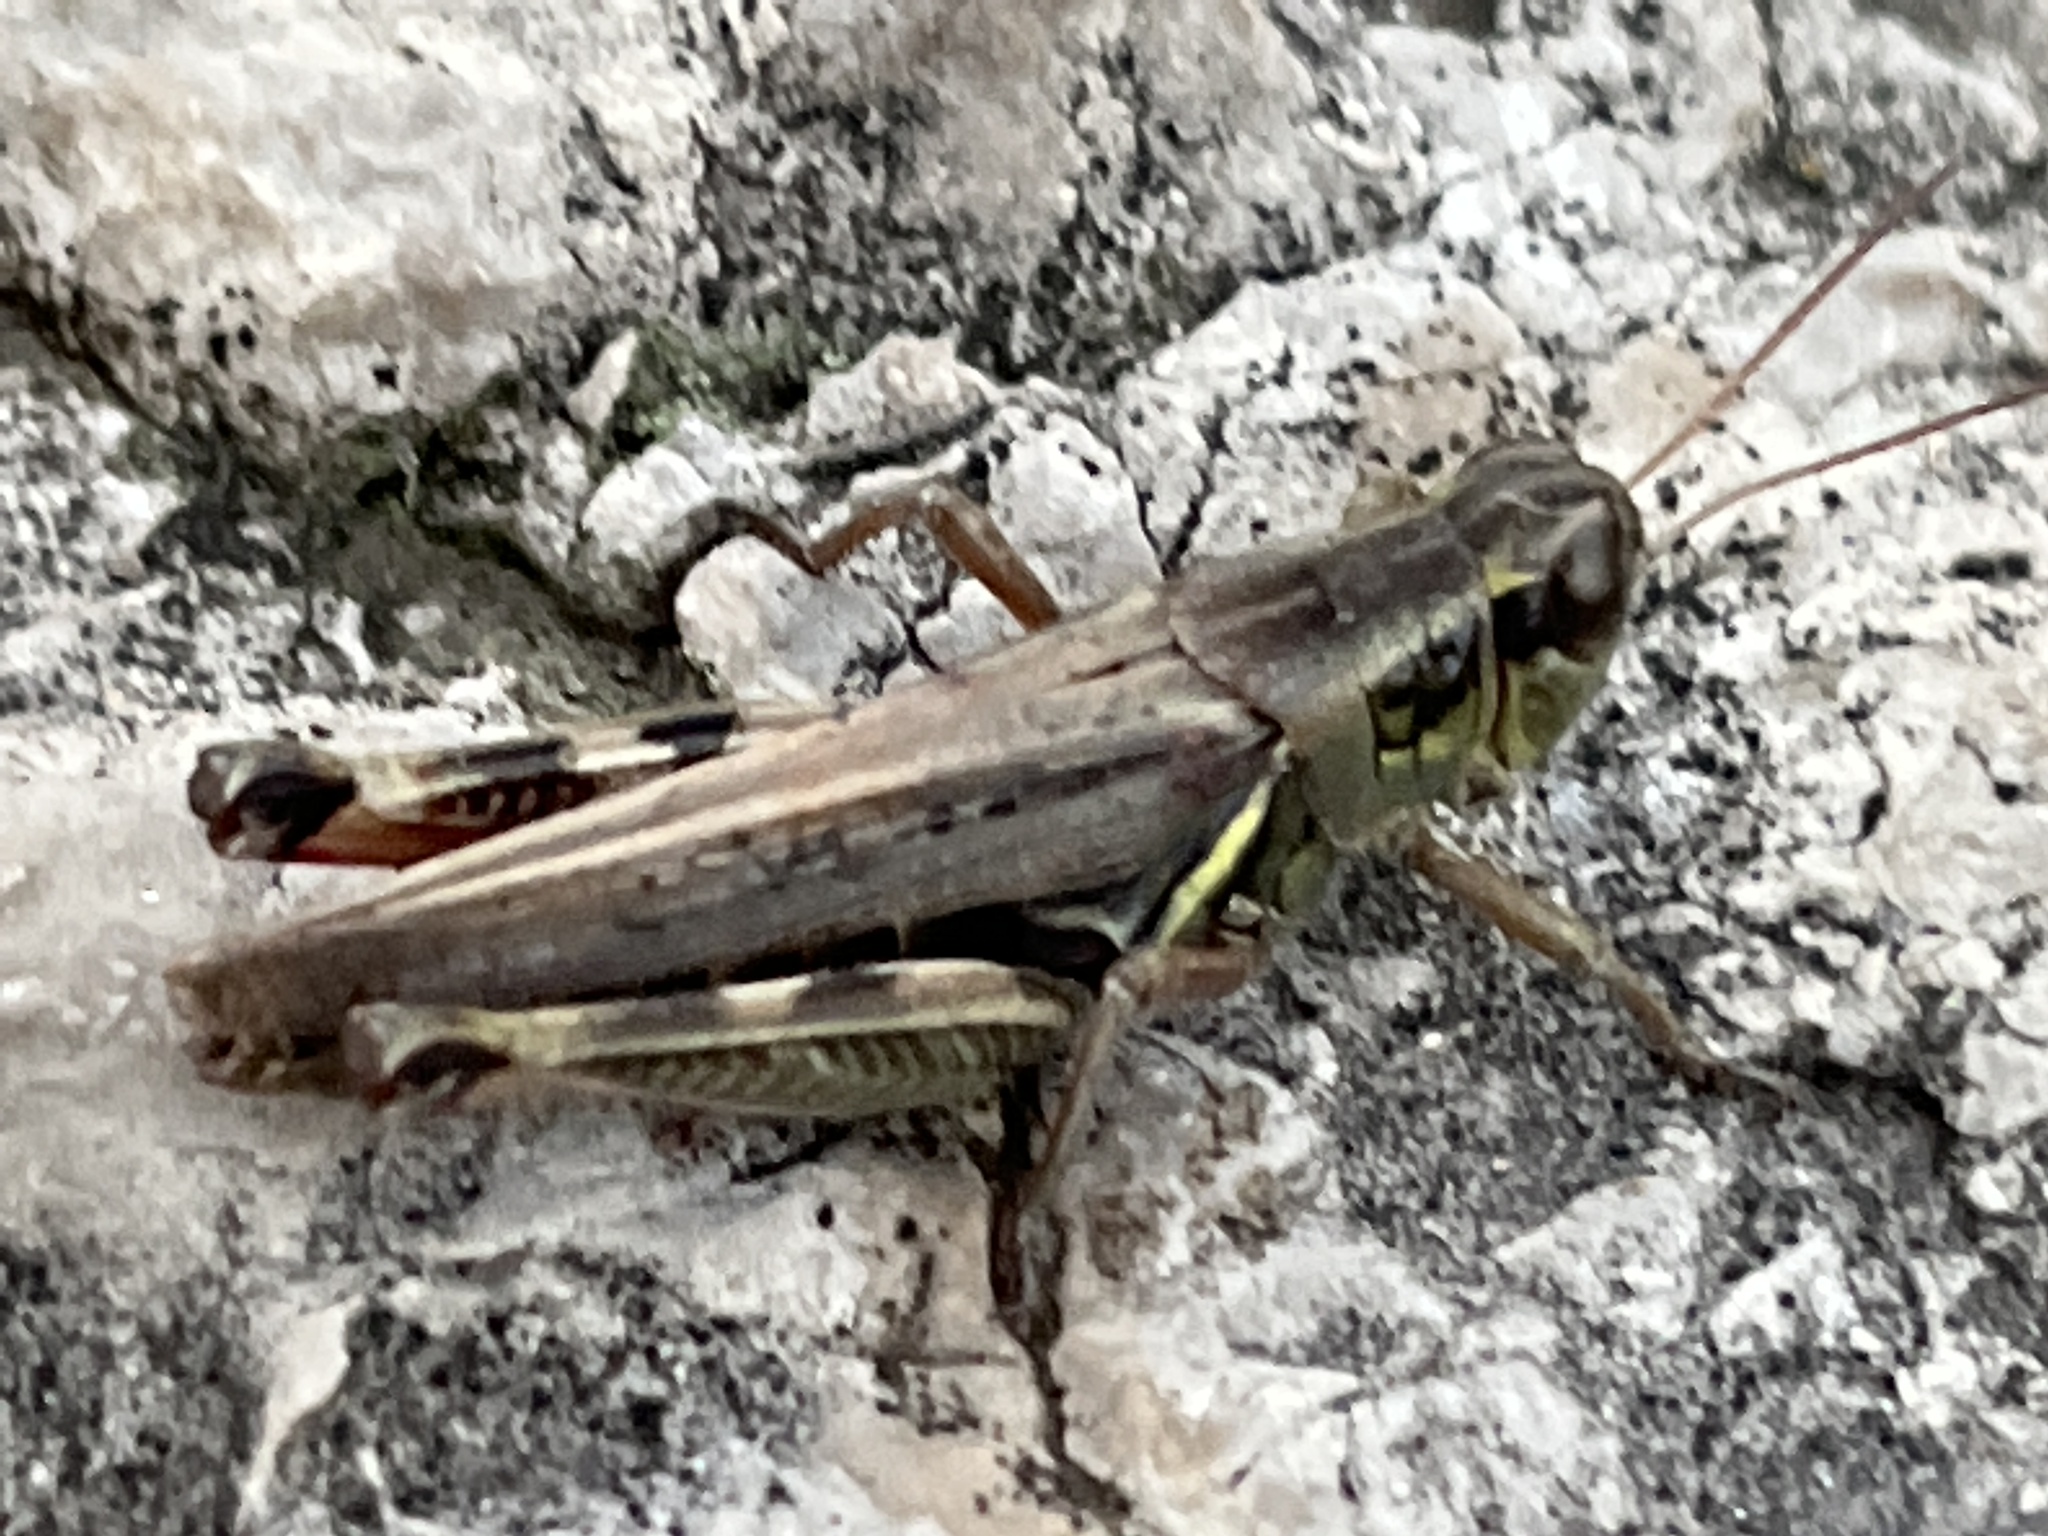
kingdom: Animalia
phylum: Arthropoda
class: Insecta
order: Orthoptera
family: Acrididae
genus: Melanoplus
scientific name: Melanoplus femurrubrum
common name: Red-legged grasshopper
